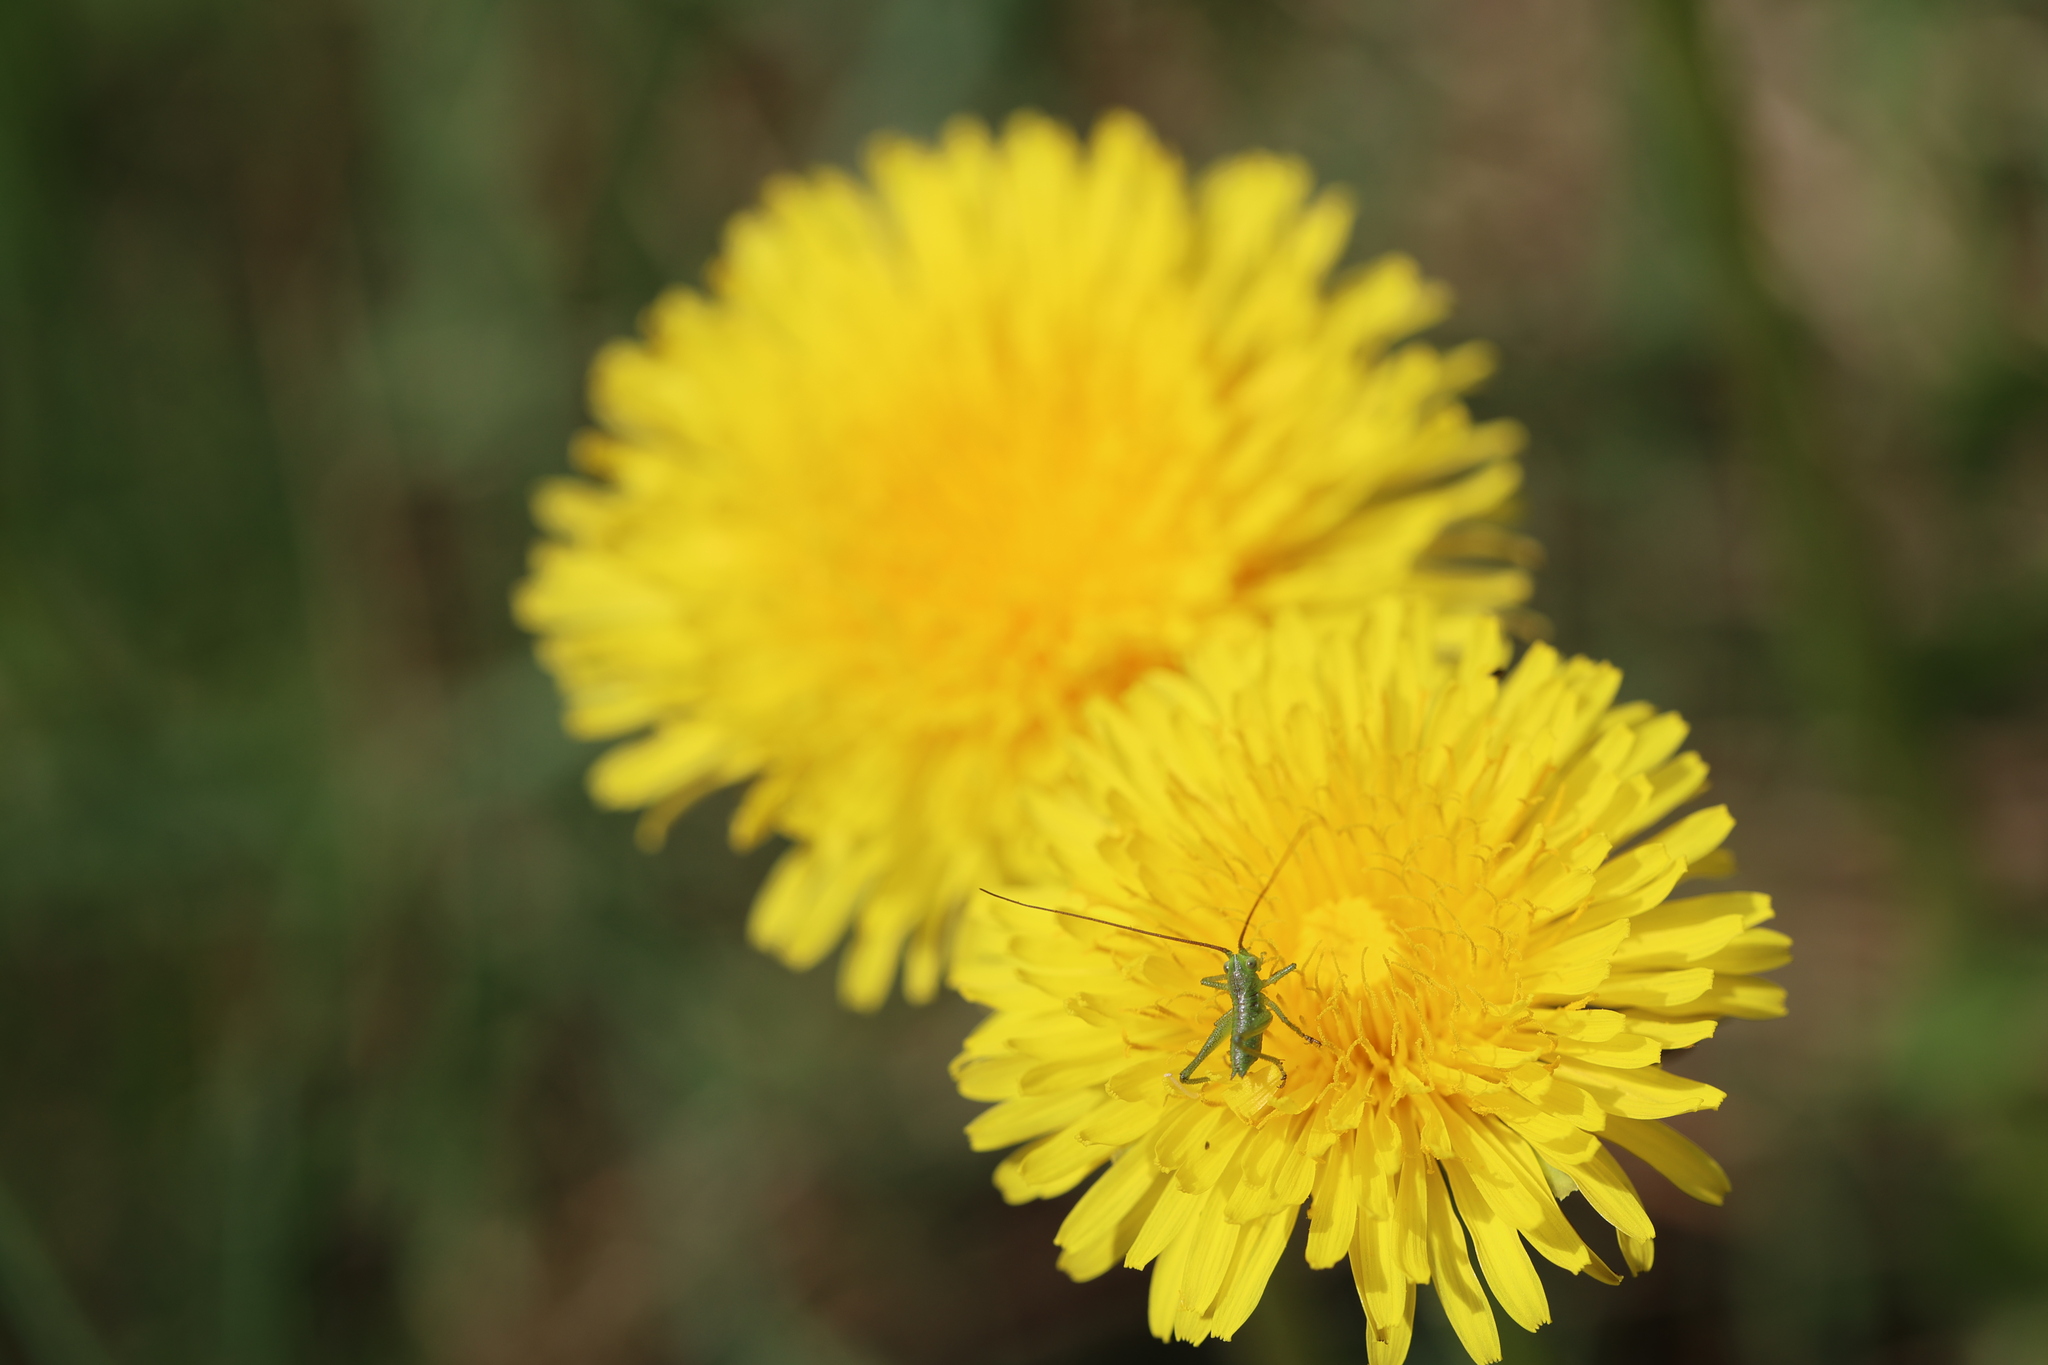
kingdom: Animalia
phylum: Arthropoda
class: Insecta
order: Orthoptera
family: Tettigoniidae
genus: Tettigonia
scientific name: Tettigonia viridissima
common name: Great green bush-cricket
